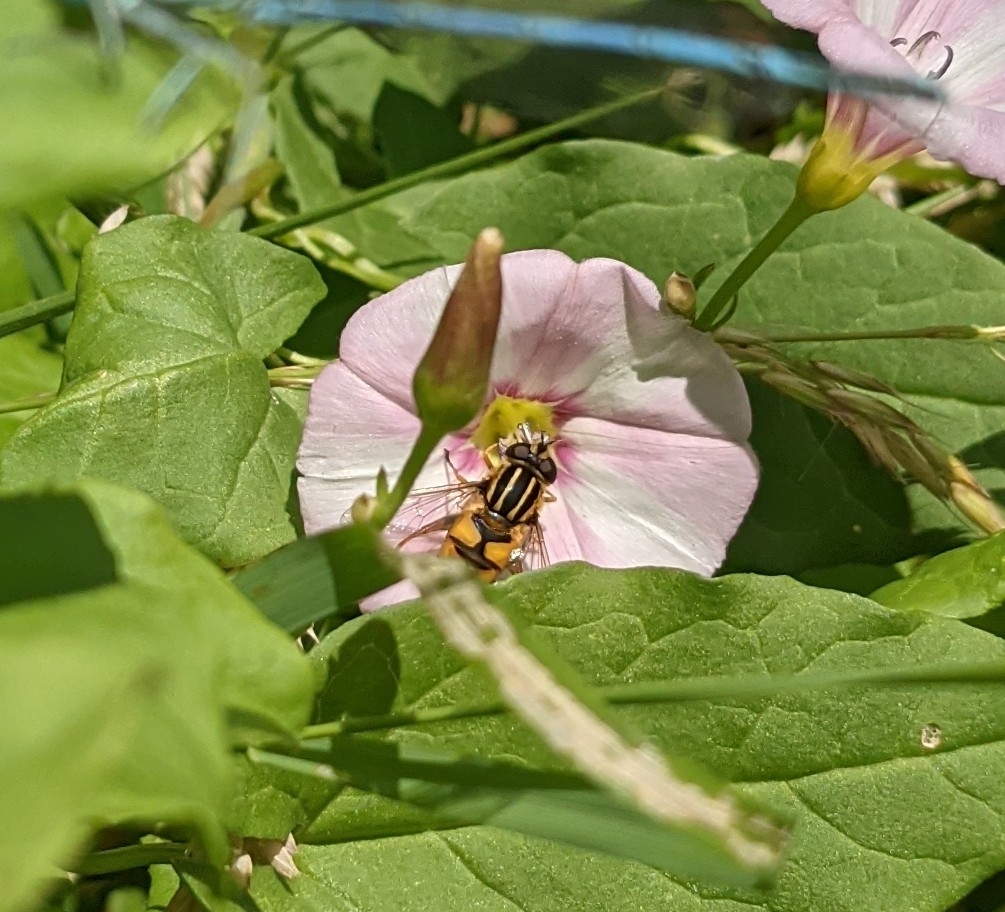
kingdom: Animalia
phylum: Arthropoda
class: Insecta
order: Diptera
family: Syrphidae
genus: Helophilus
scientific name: Helophilus pendulus
